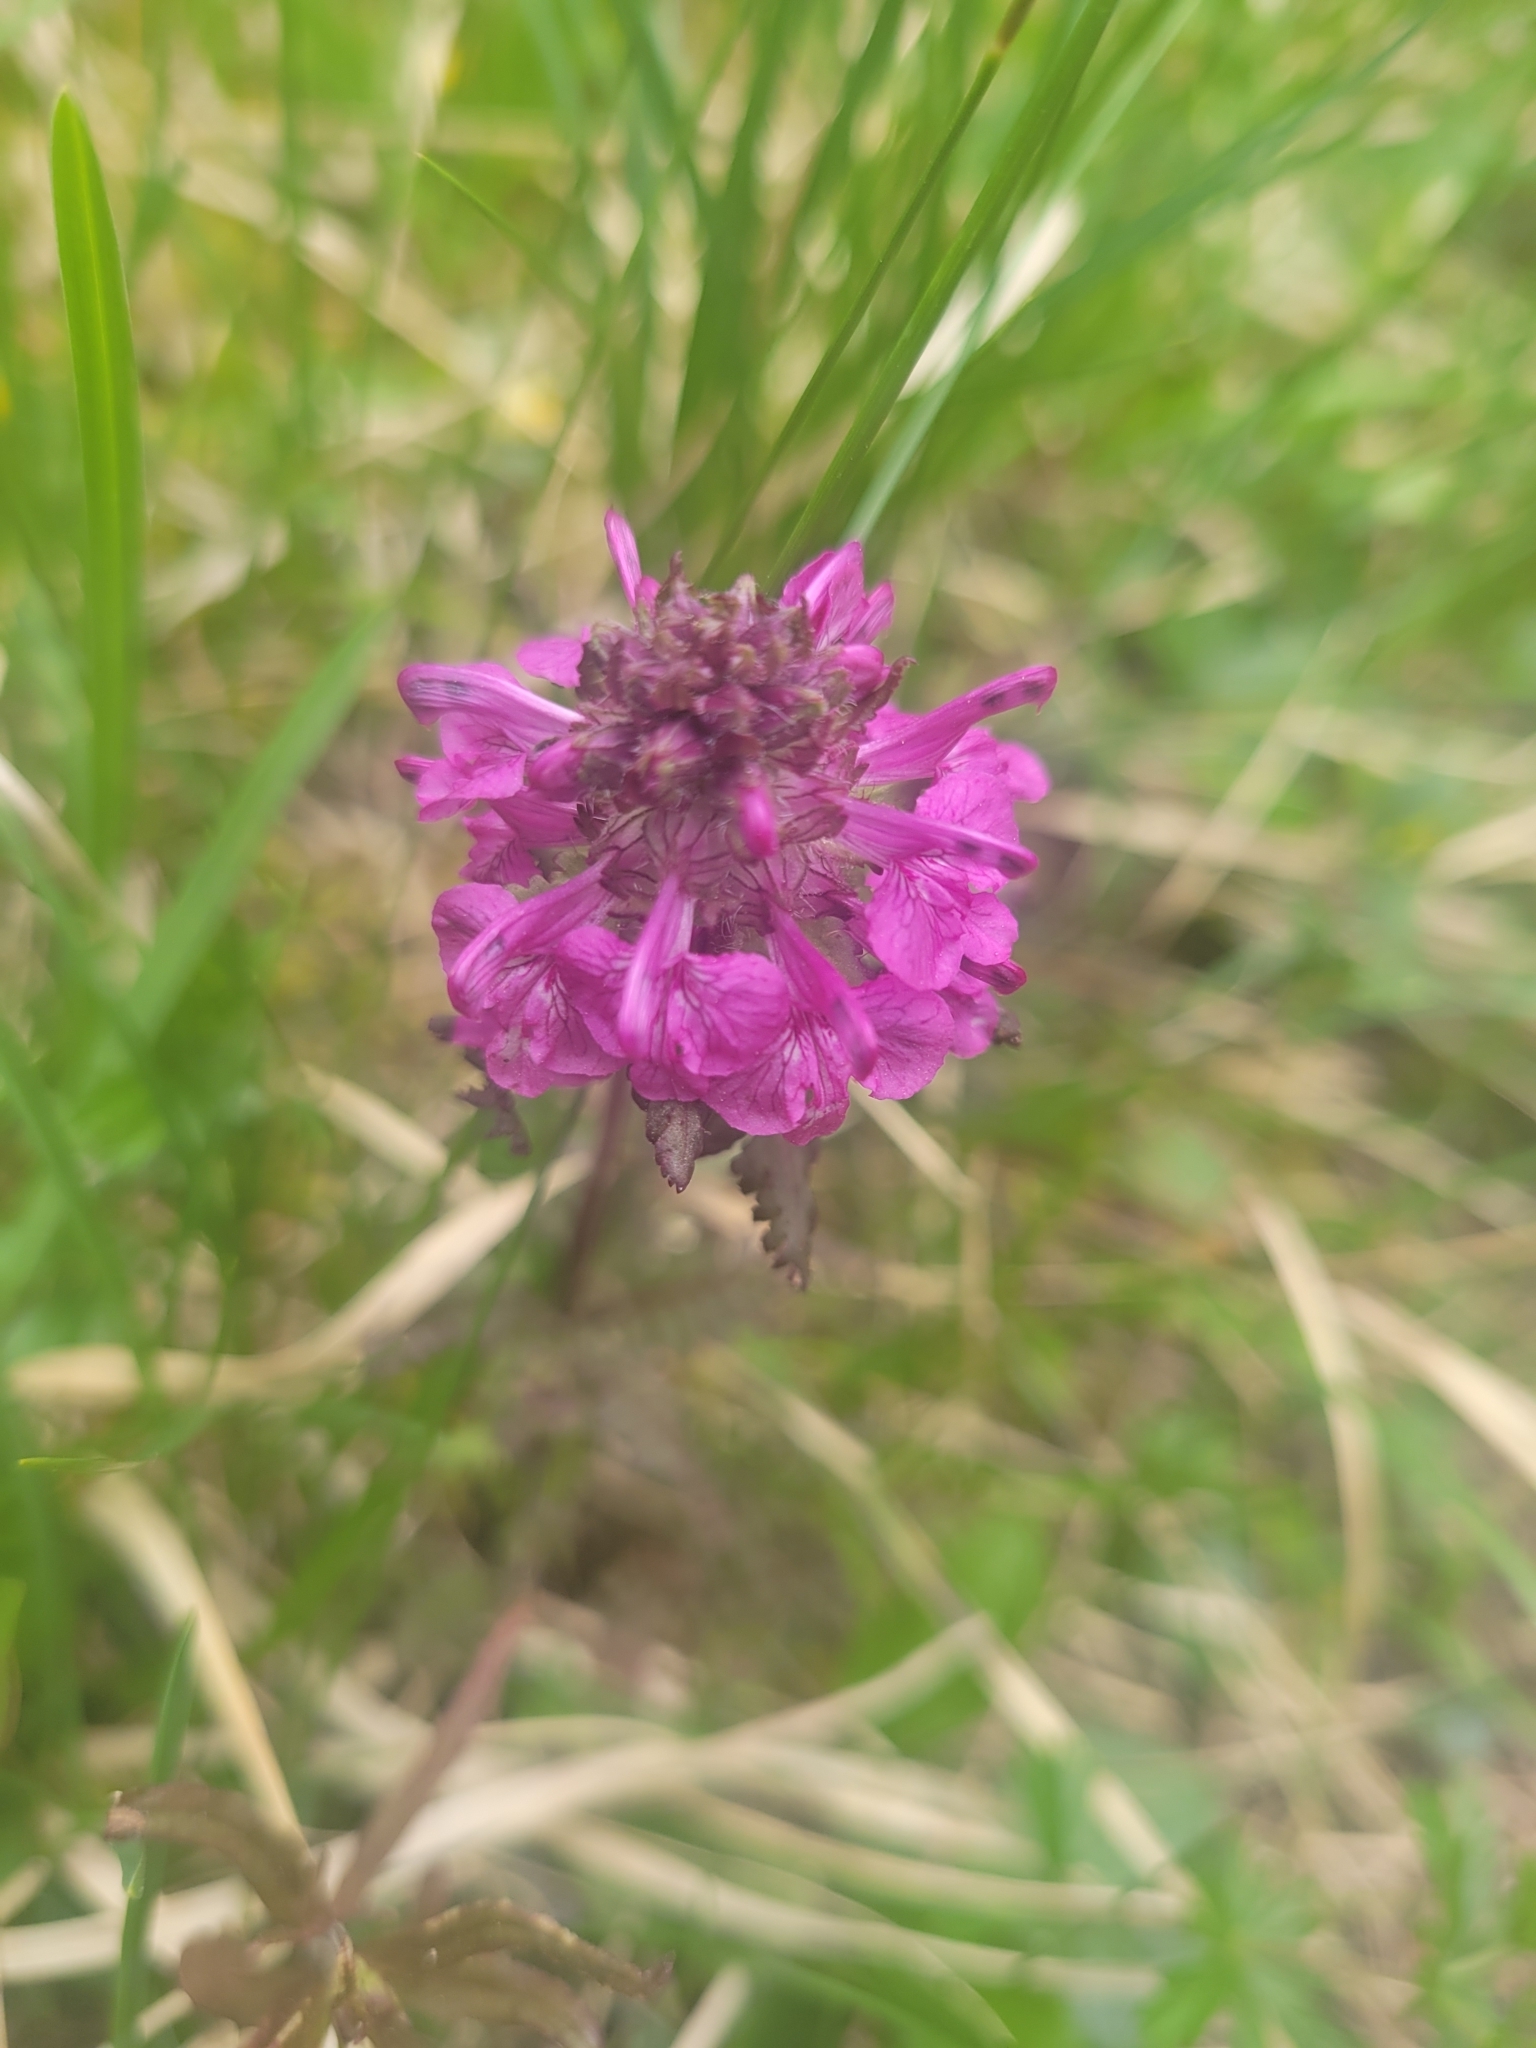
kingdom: Plantae
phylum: Tracheophyta
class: Magnoliopsida
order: Lamiales
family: Orobanchaceae
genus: Pedicularis
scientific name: Pedicularis verticillata
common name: Whorled lousewort
